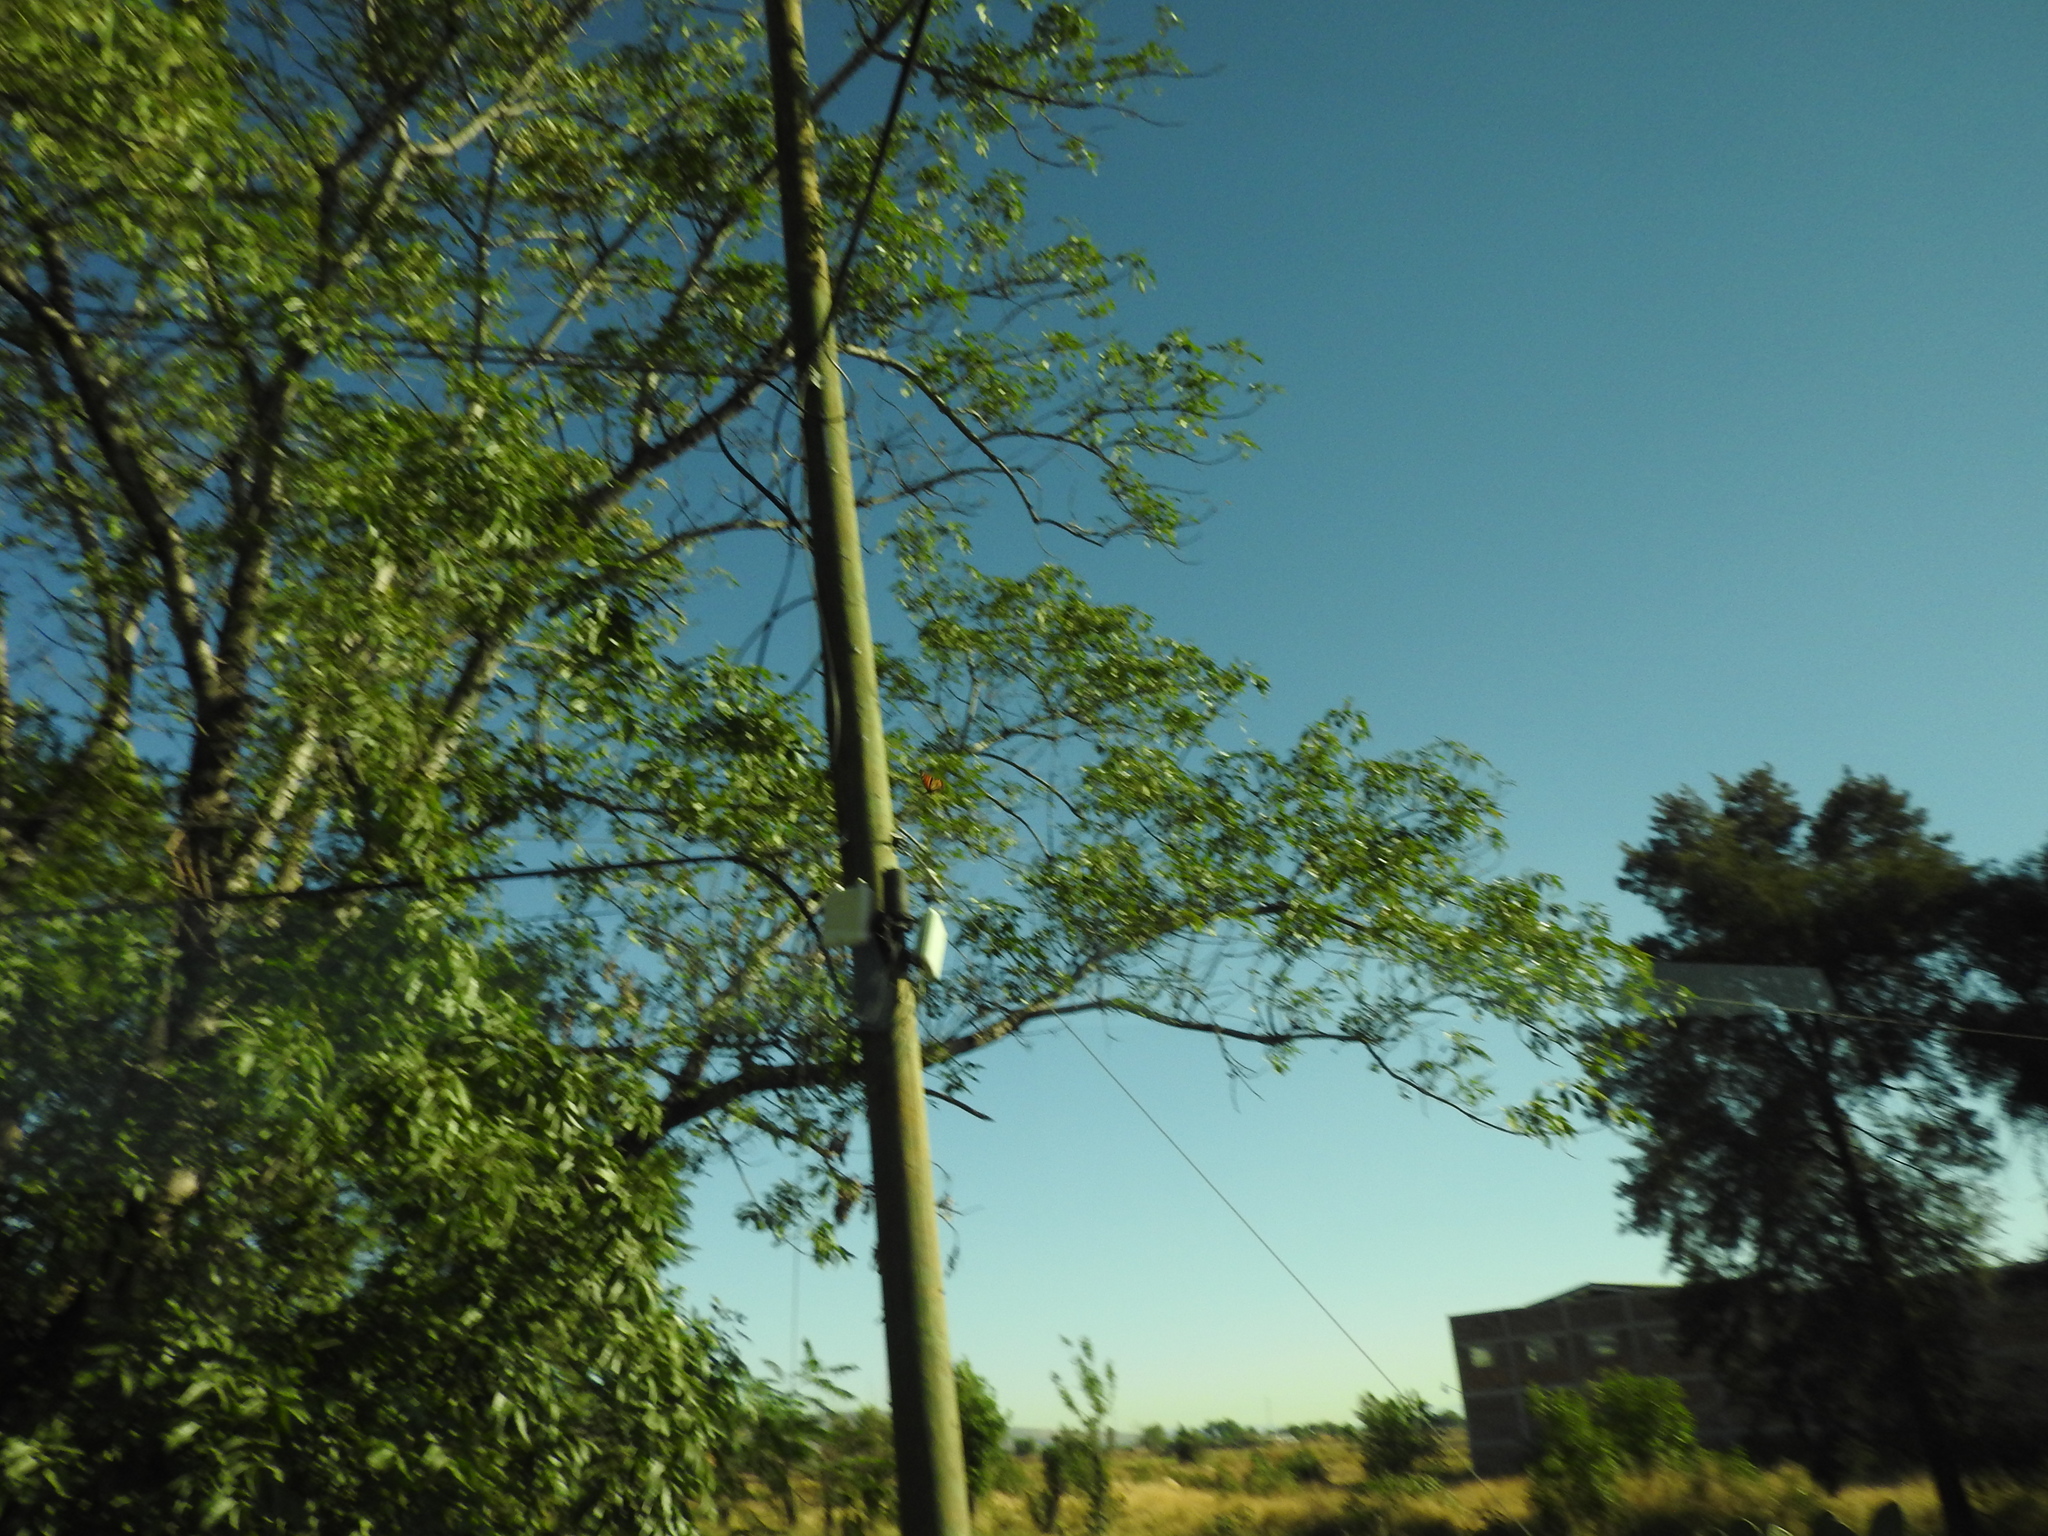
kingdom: Animalia
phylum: Arthropoda
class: Insecta
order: Lepidoptera
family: Nymphalidae
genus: Danaus
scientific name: Danaus plexippus
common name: Monarch
